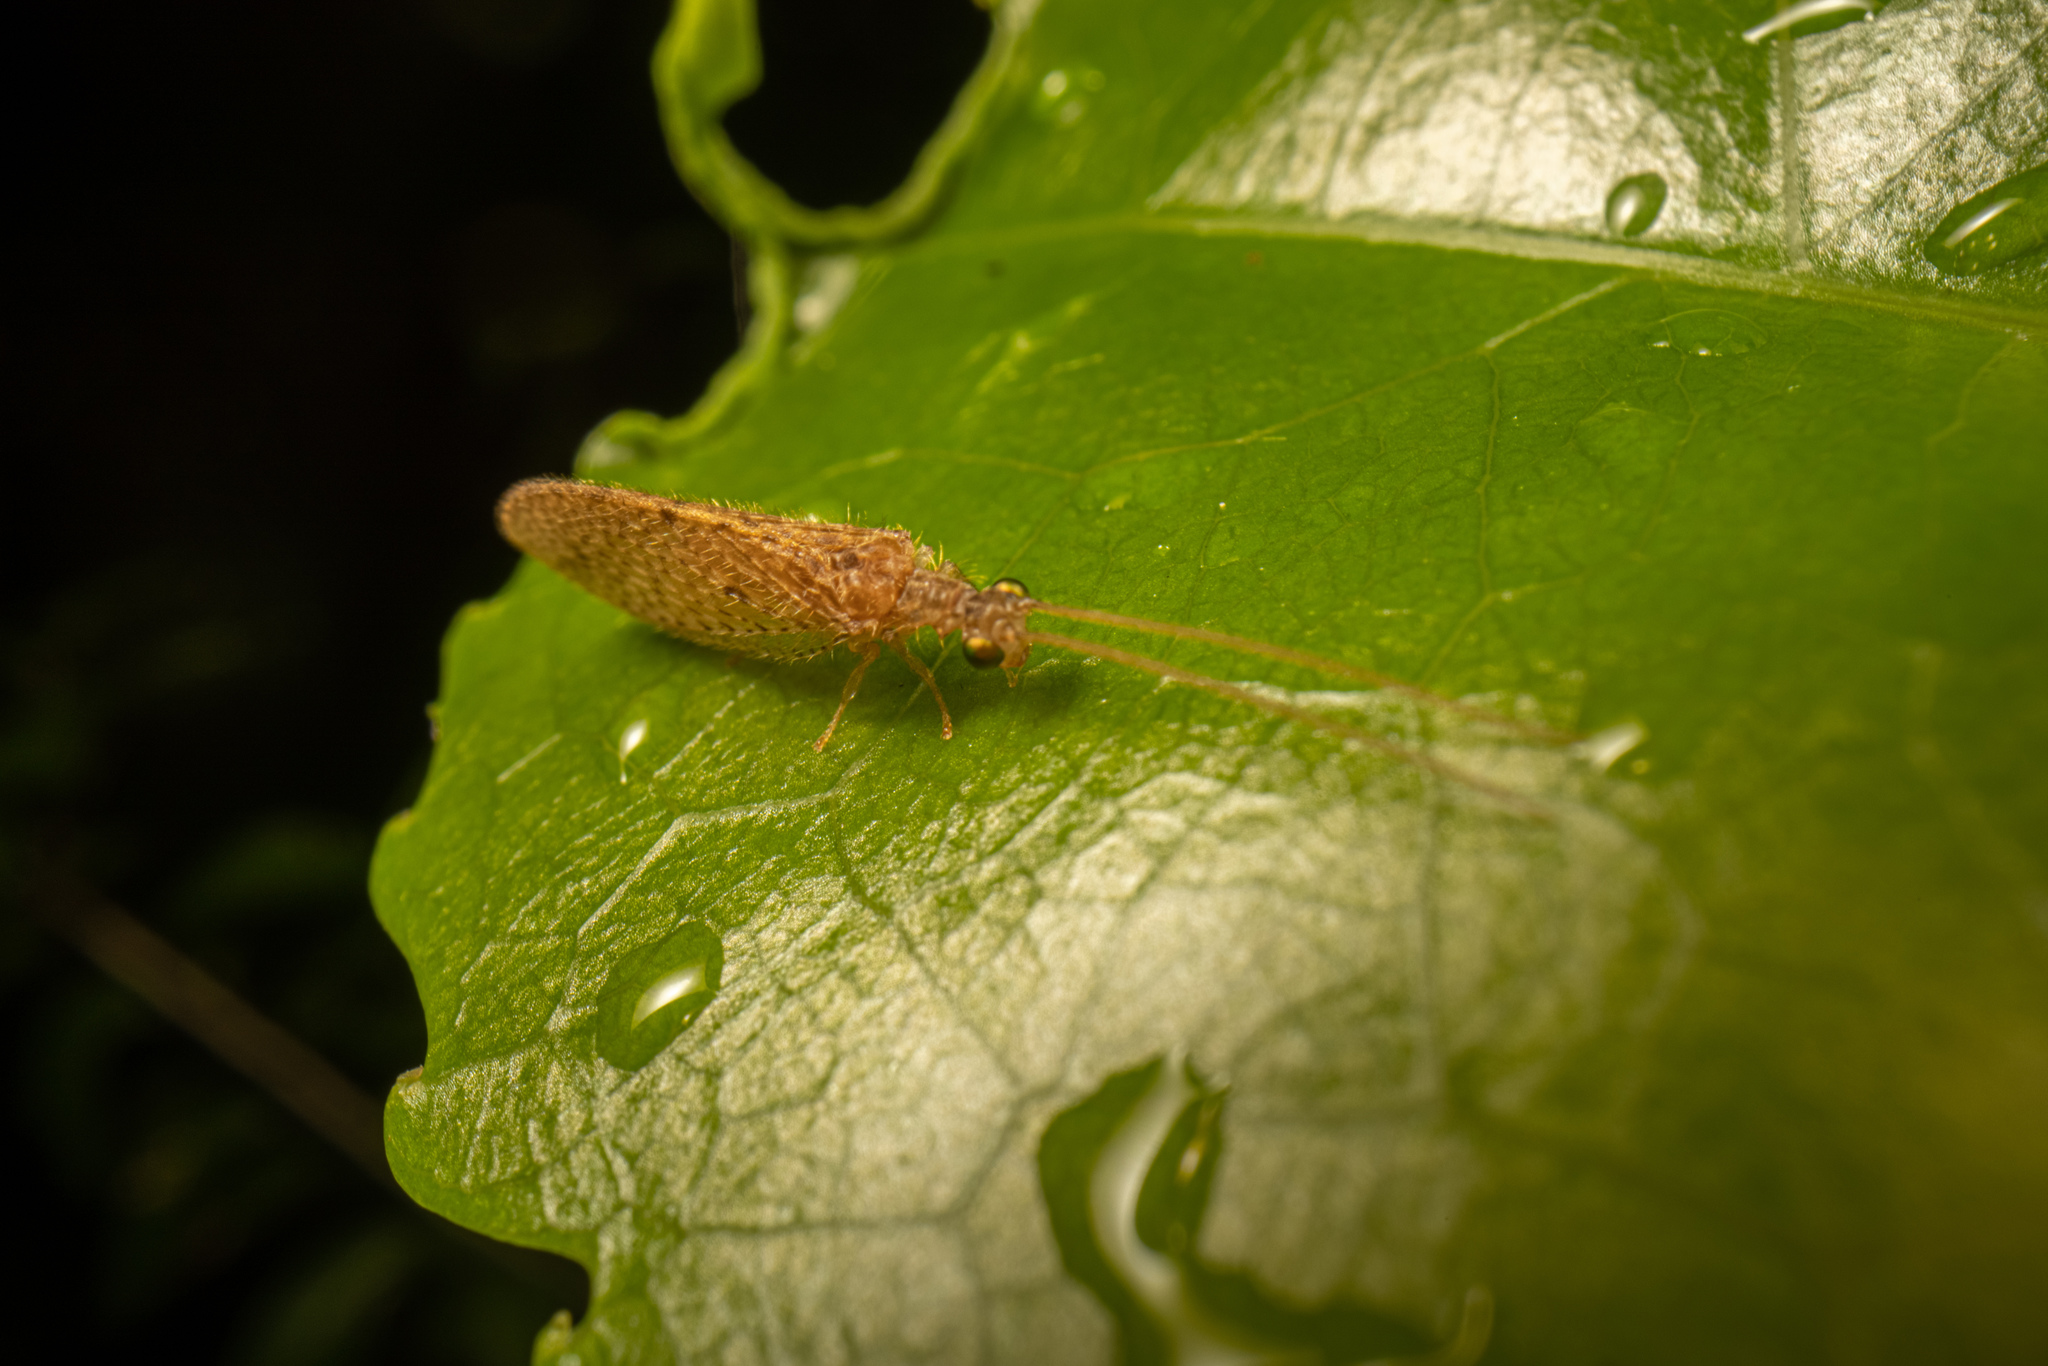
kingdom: Animalia
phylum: Arthropoda
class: Insecta
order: Neuroptera
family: Hemerobiidae
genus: Micromus
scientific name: Micromus tasmaniae
